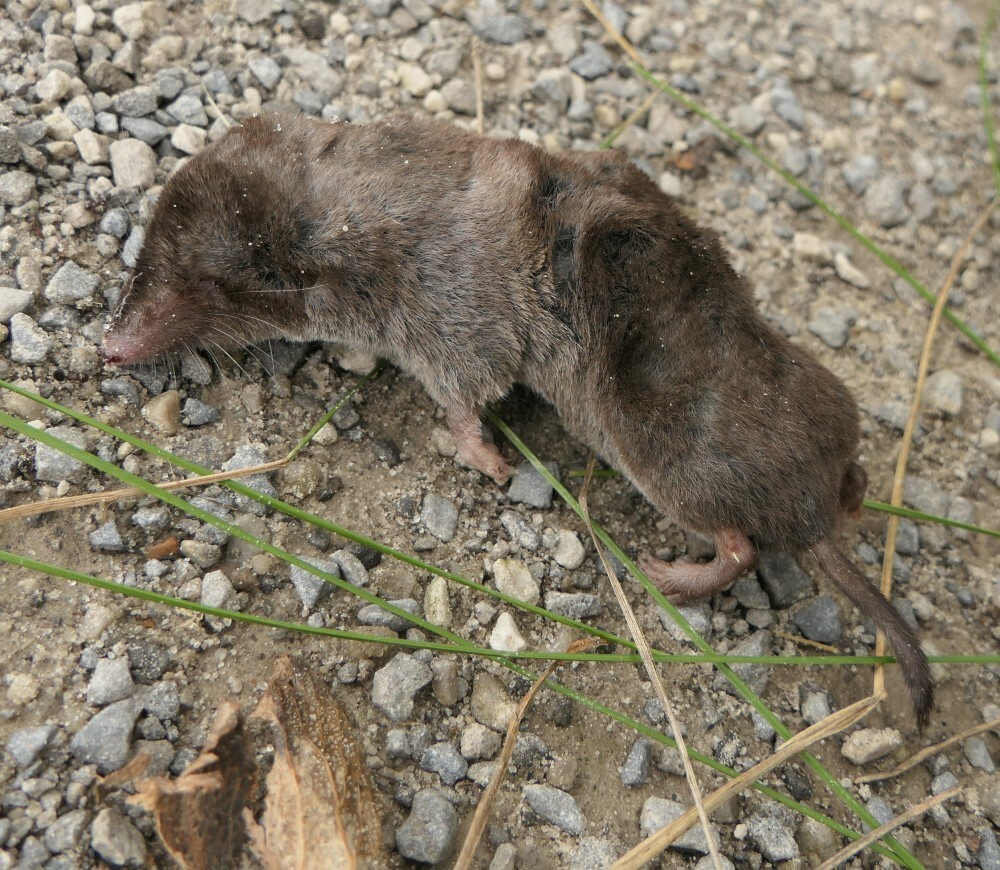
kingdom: Animalia
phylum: Chordata
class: Mammalia
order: Soricomorpha
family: Soricidae
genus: Blarina
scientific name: Blarina brevicauda
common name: Northern short-tailed shrew
